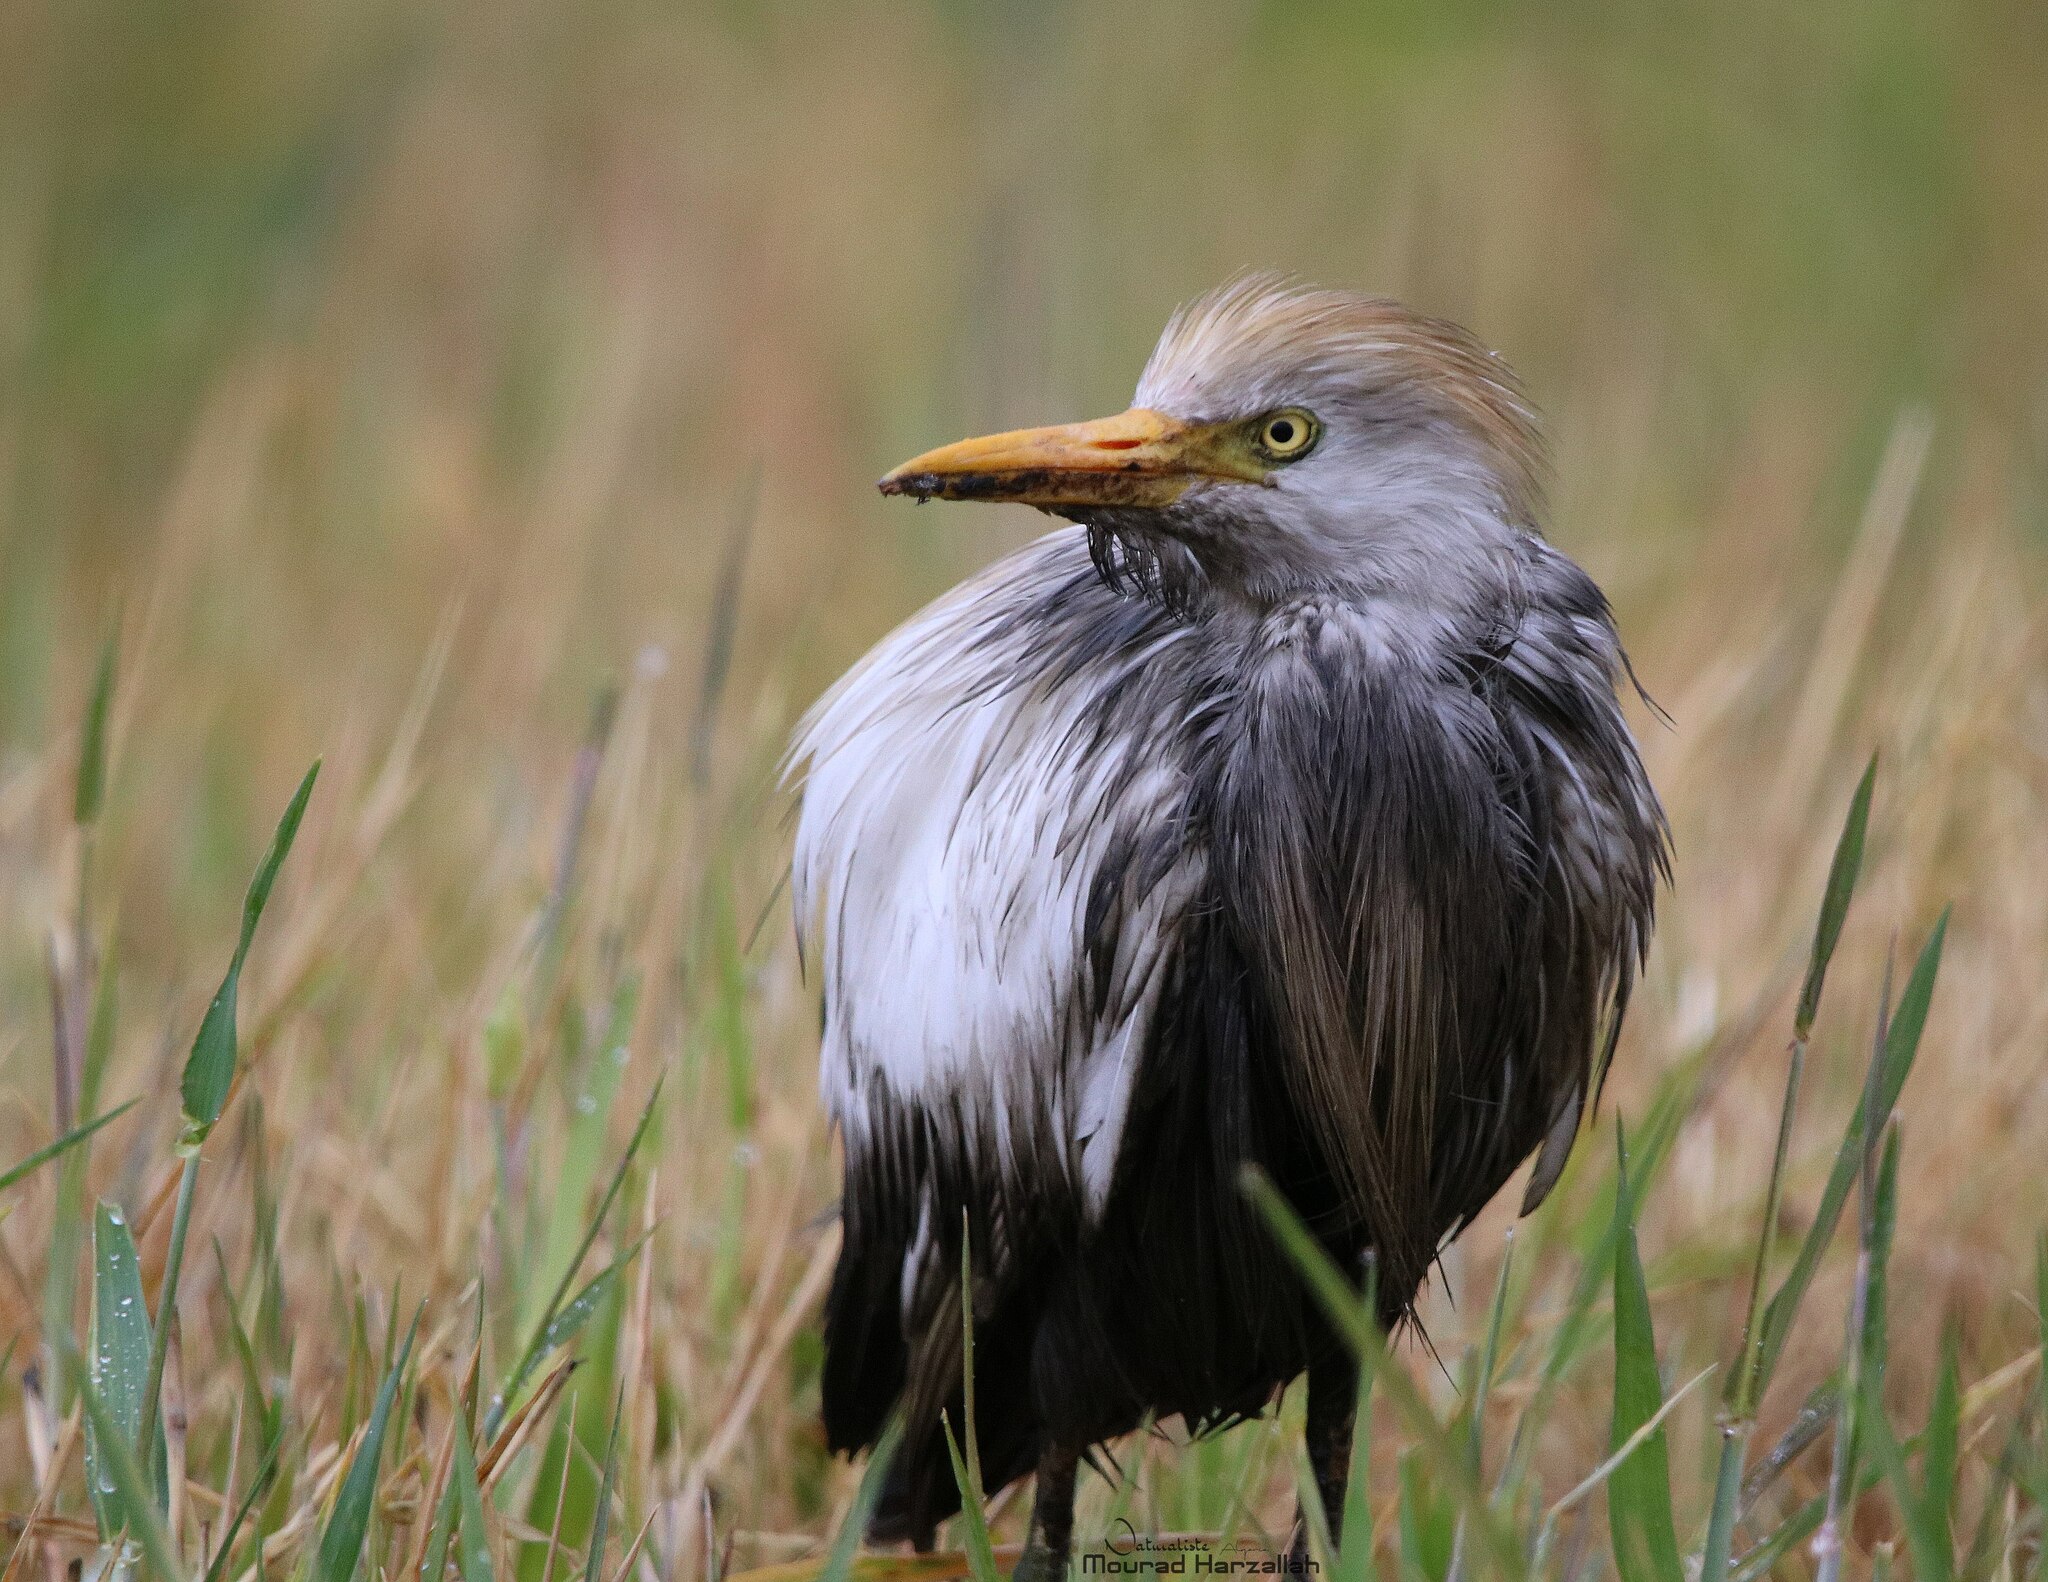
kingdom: Animalia
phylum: Chordata
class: Aves
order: Pelecaniformes
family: Ardeidae
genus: Bubulcus
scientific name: Bubulcus ibis
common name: Cattle egret
